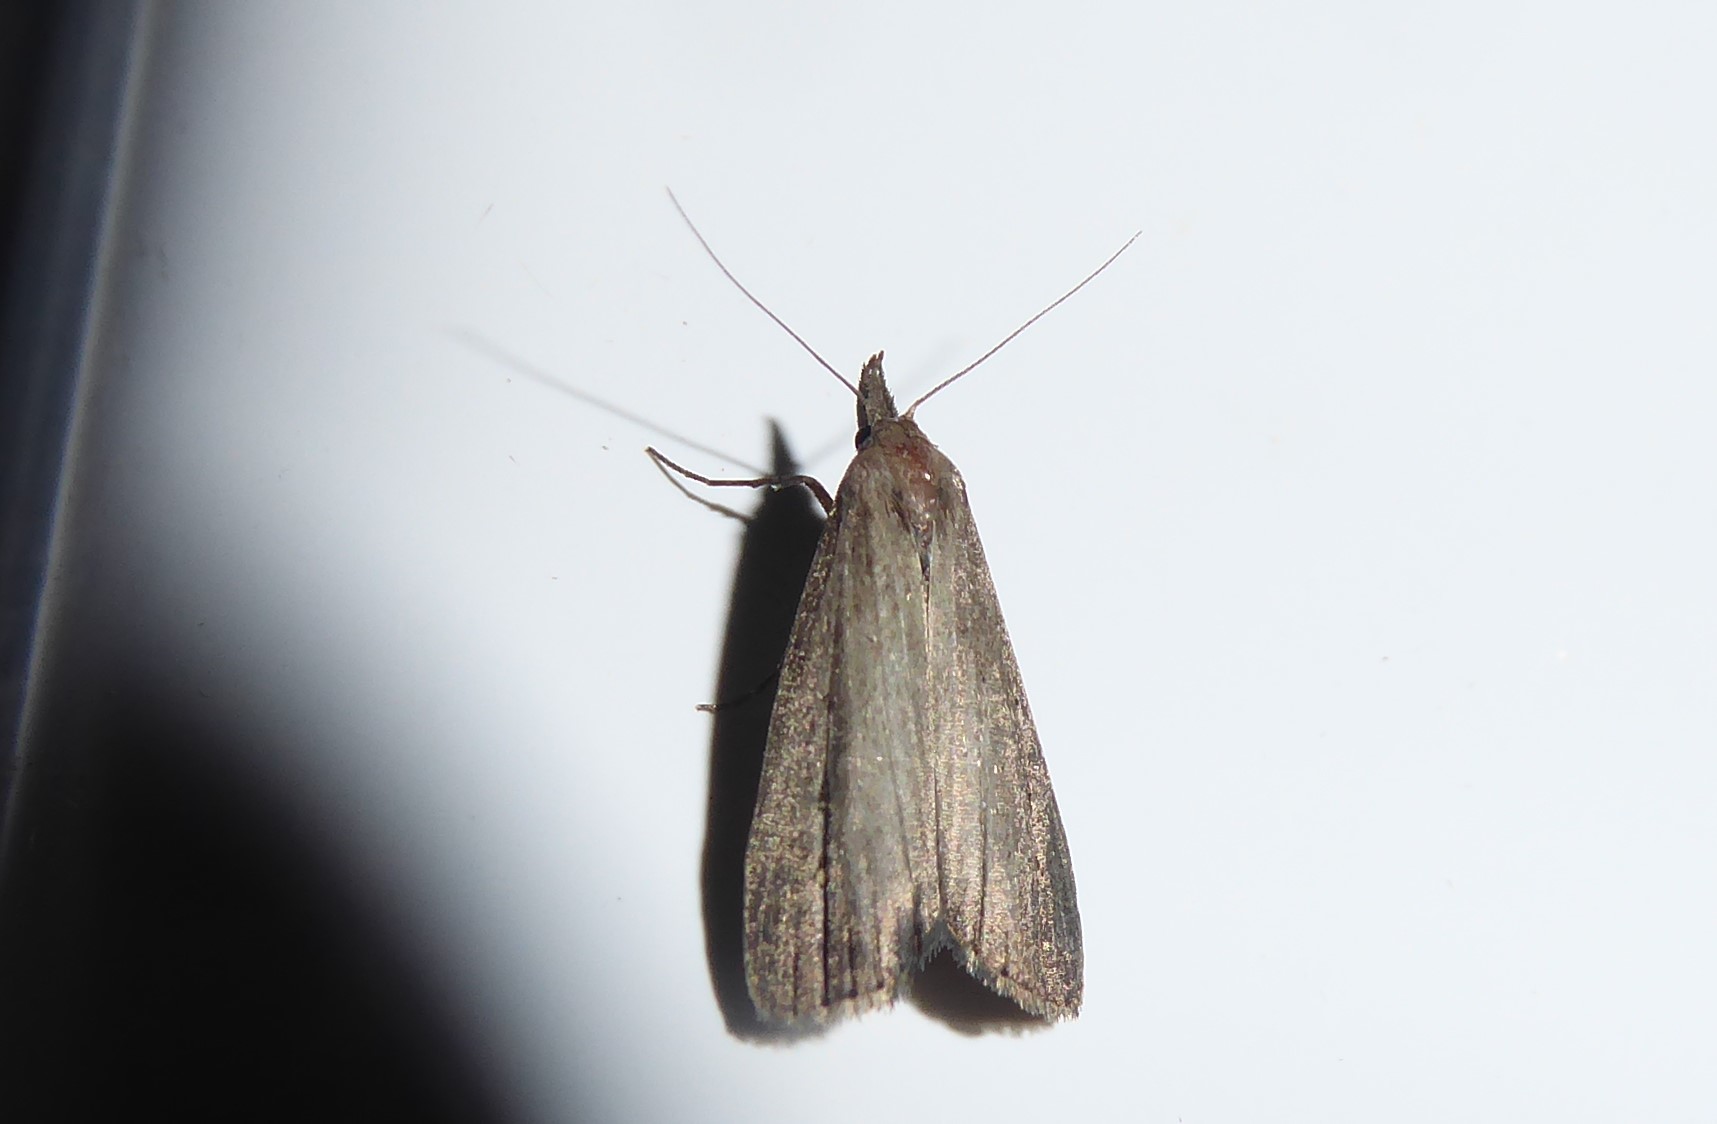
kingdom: Animalia
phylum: Arthropoda
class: Insecta
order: Lepidoptera
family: Erebidae
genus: Schrankia
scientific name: Schrankia costaestrigalis
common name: Pinion-streaked snout
